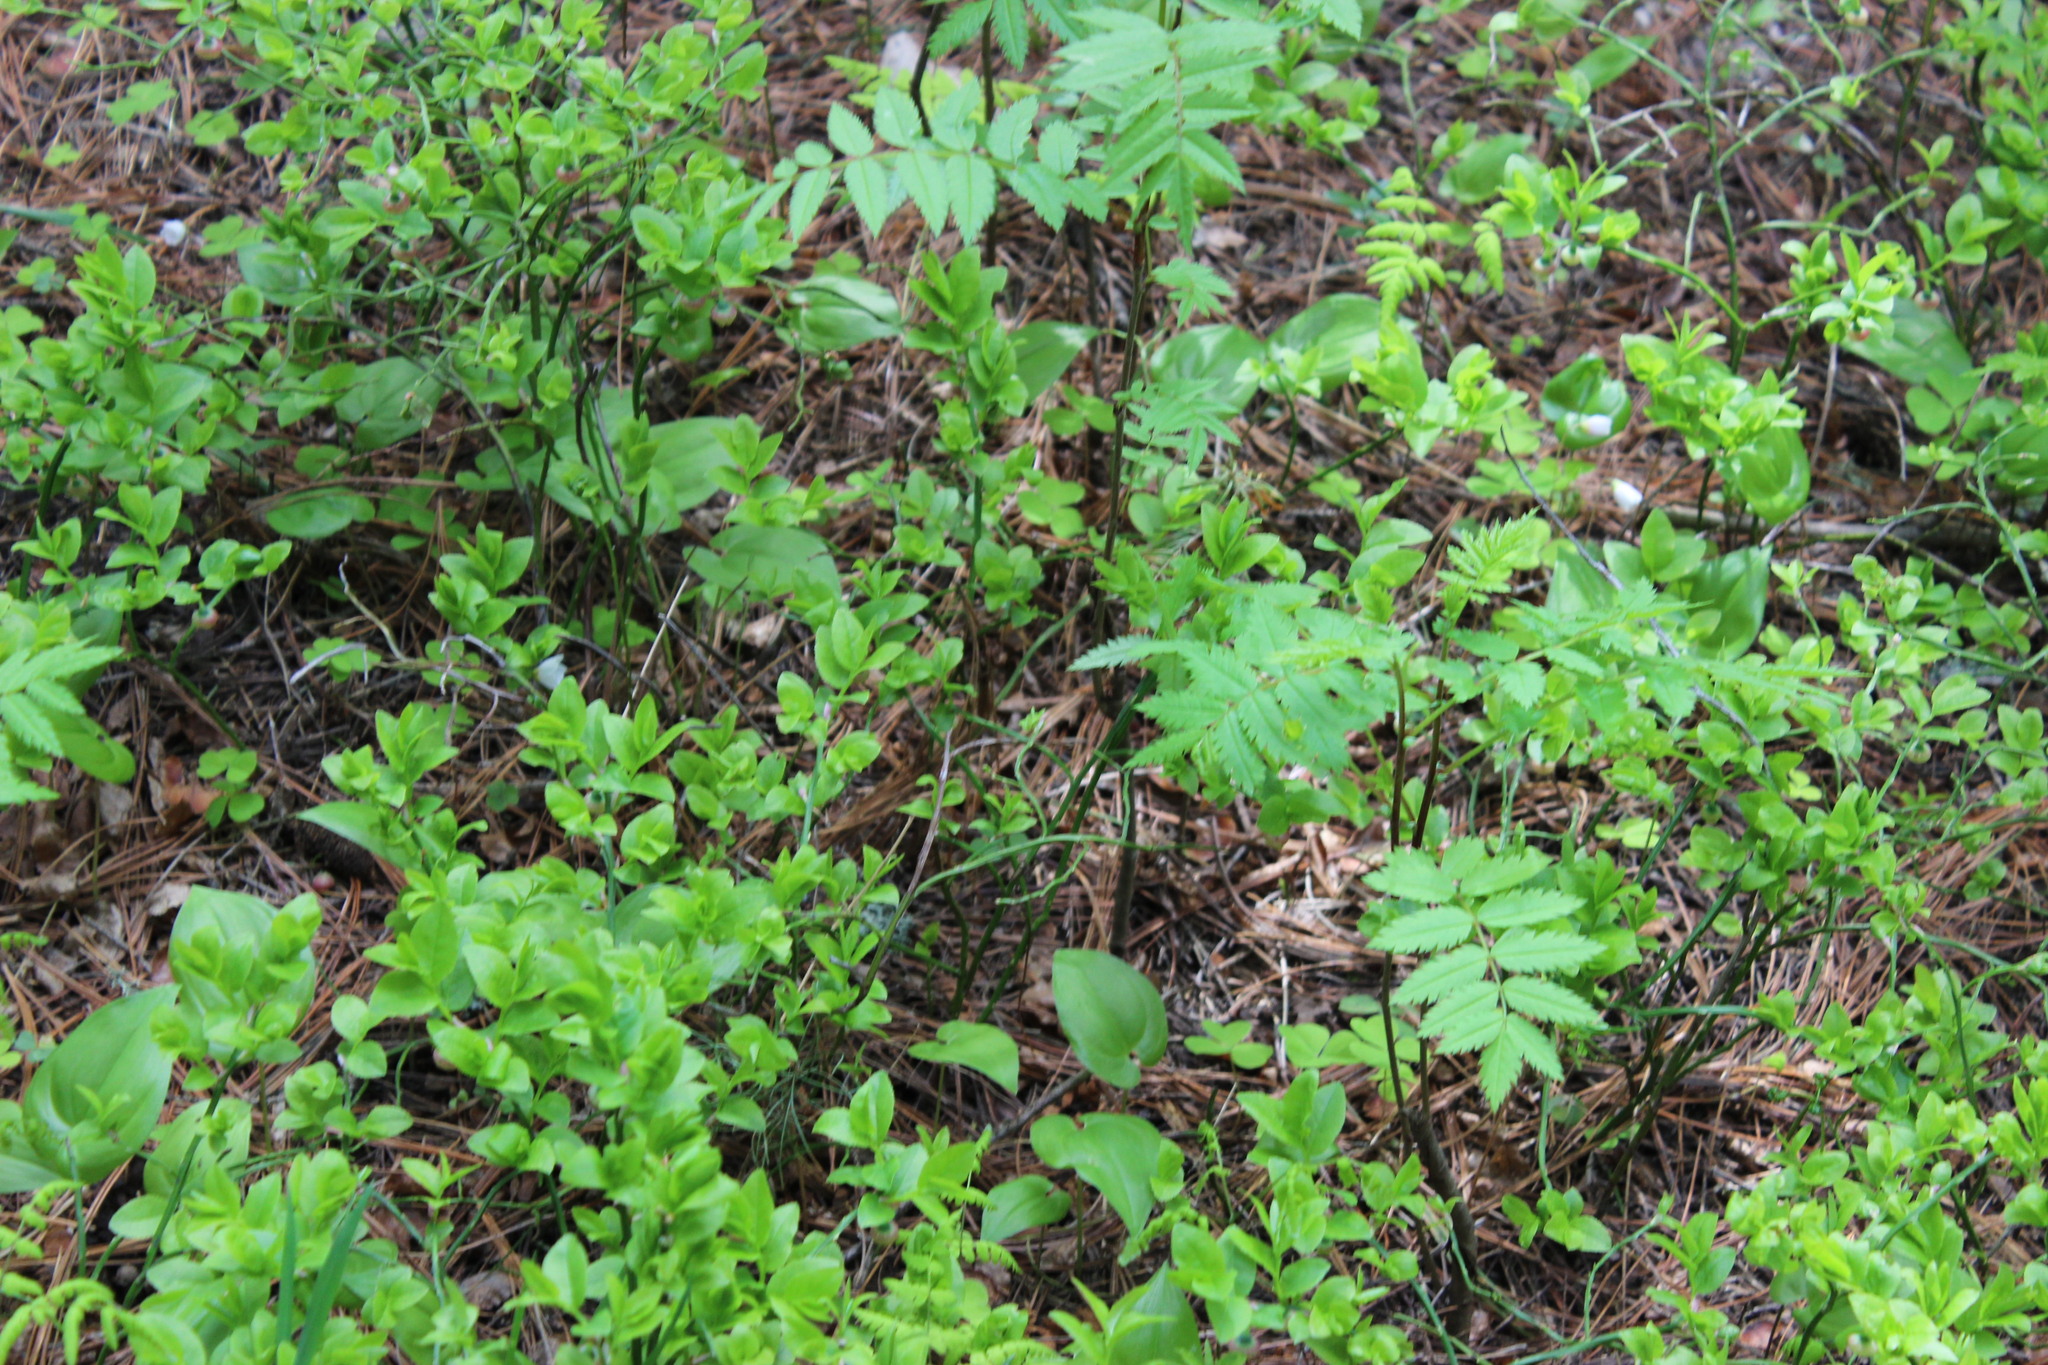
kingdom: Plantae
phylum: Tracheophyta
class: Magnoliopsida
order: Rosales
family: Rosaceae
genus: Sorbus
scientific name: Sorbus aucuparia
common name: Rowan
